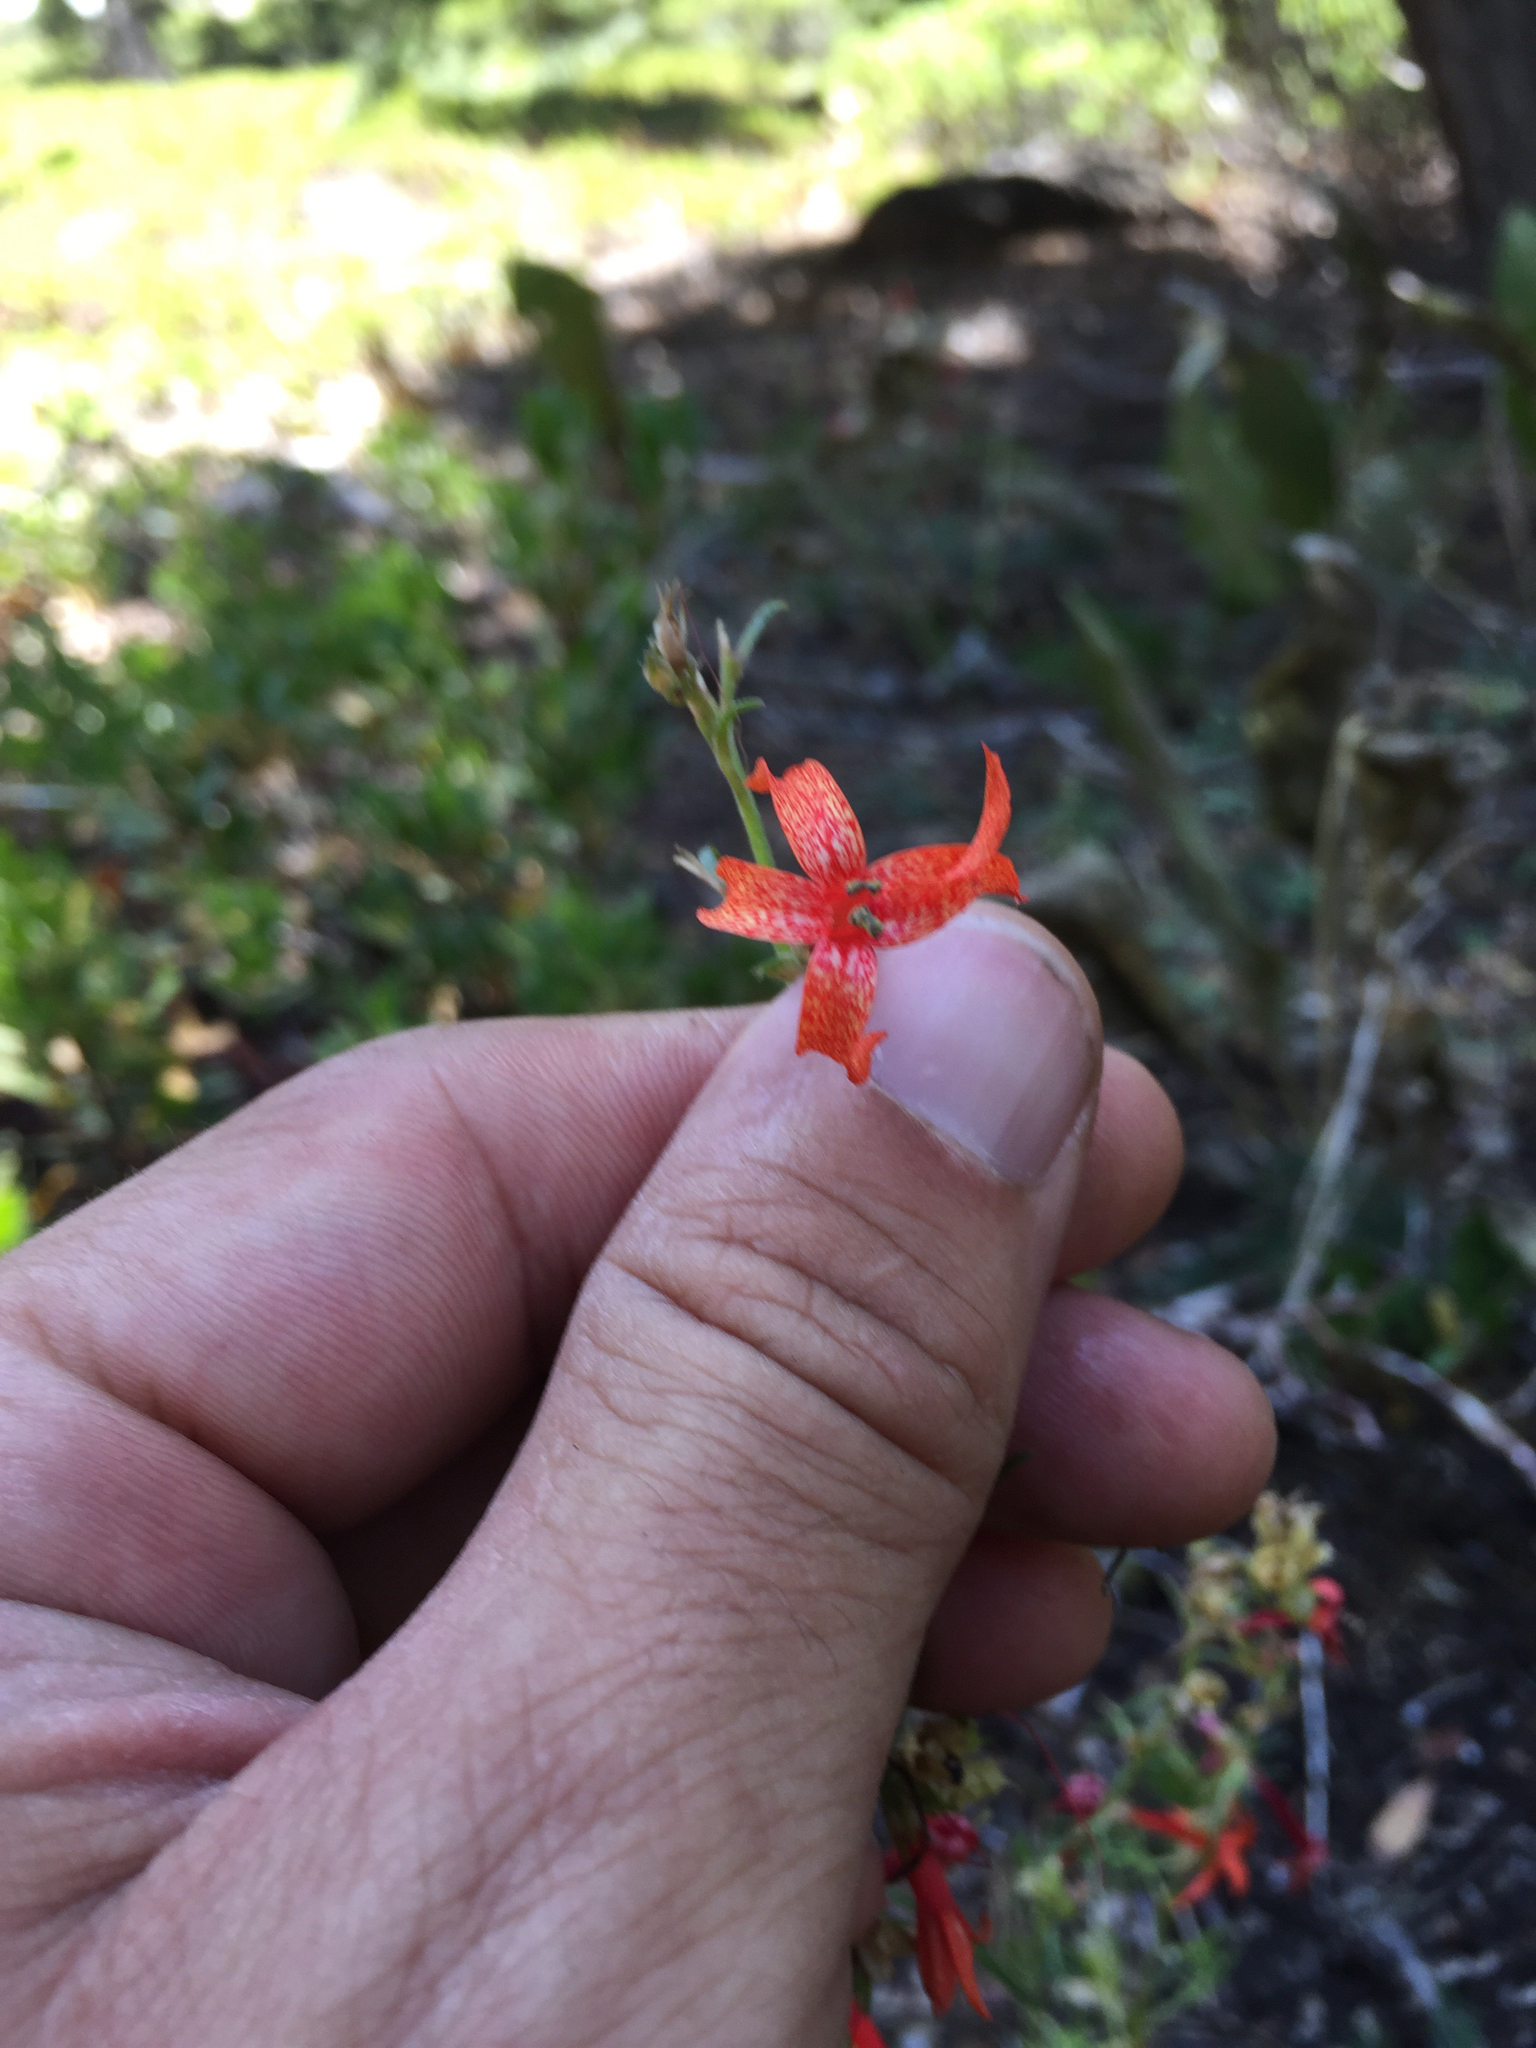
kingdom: Plantae
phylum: Tracheophyta
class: Magnoliopsida
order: Ericales
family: Polemoniaceae
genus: Ipomopsis
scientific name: Ipomopsis aggregata
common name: Scarlet gilia
